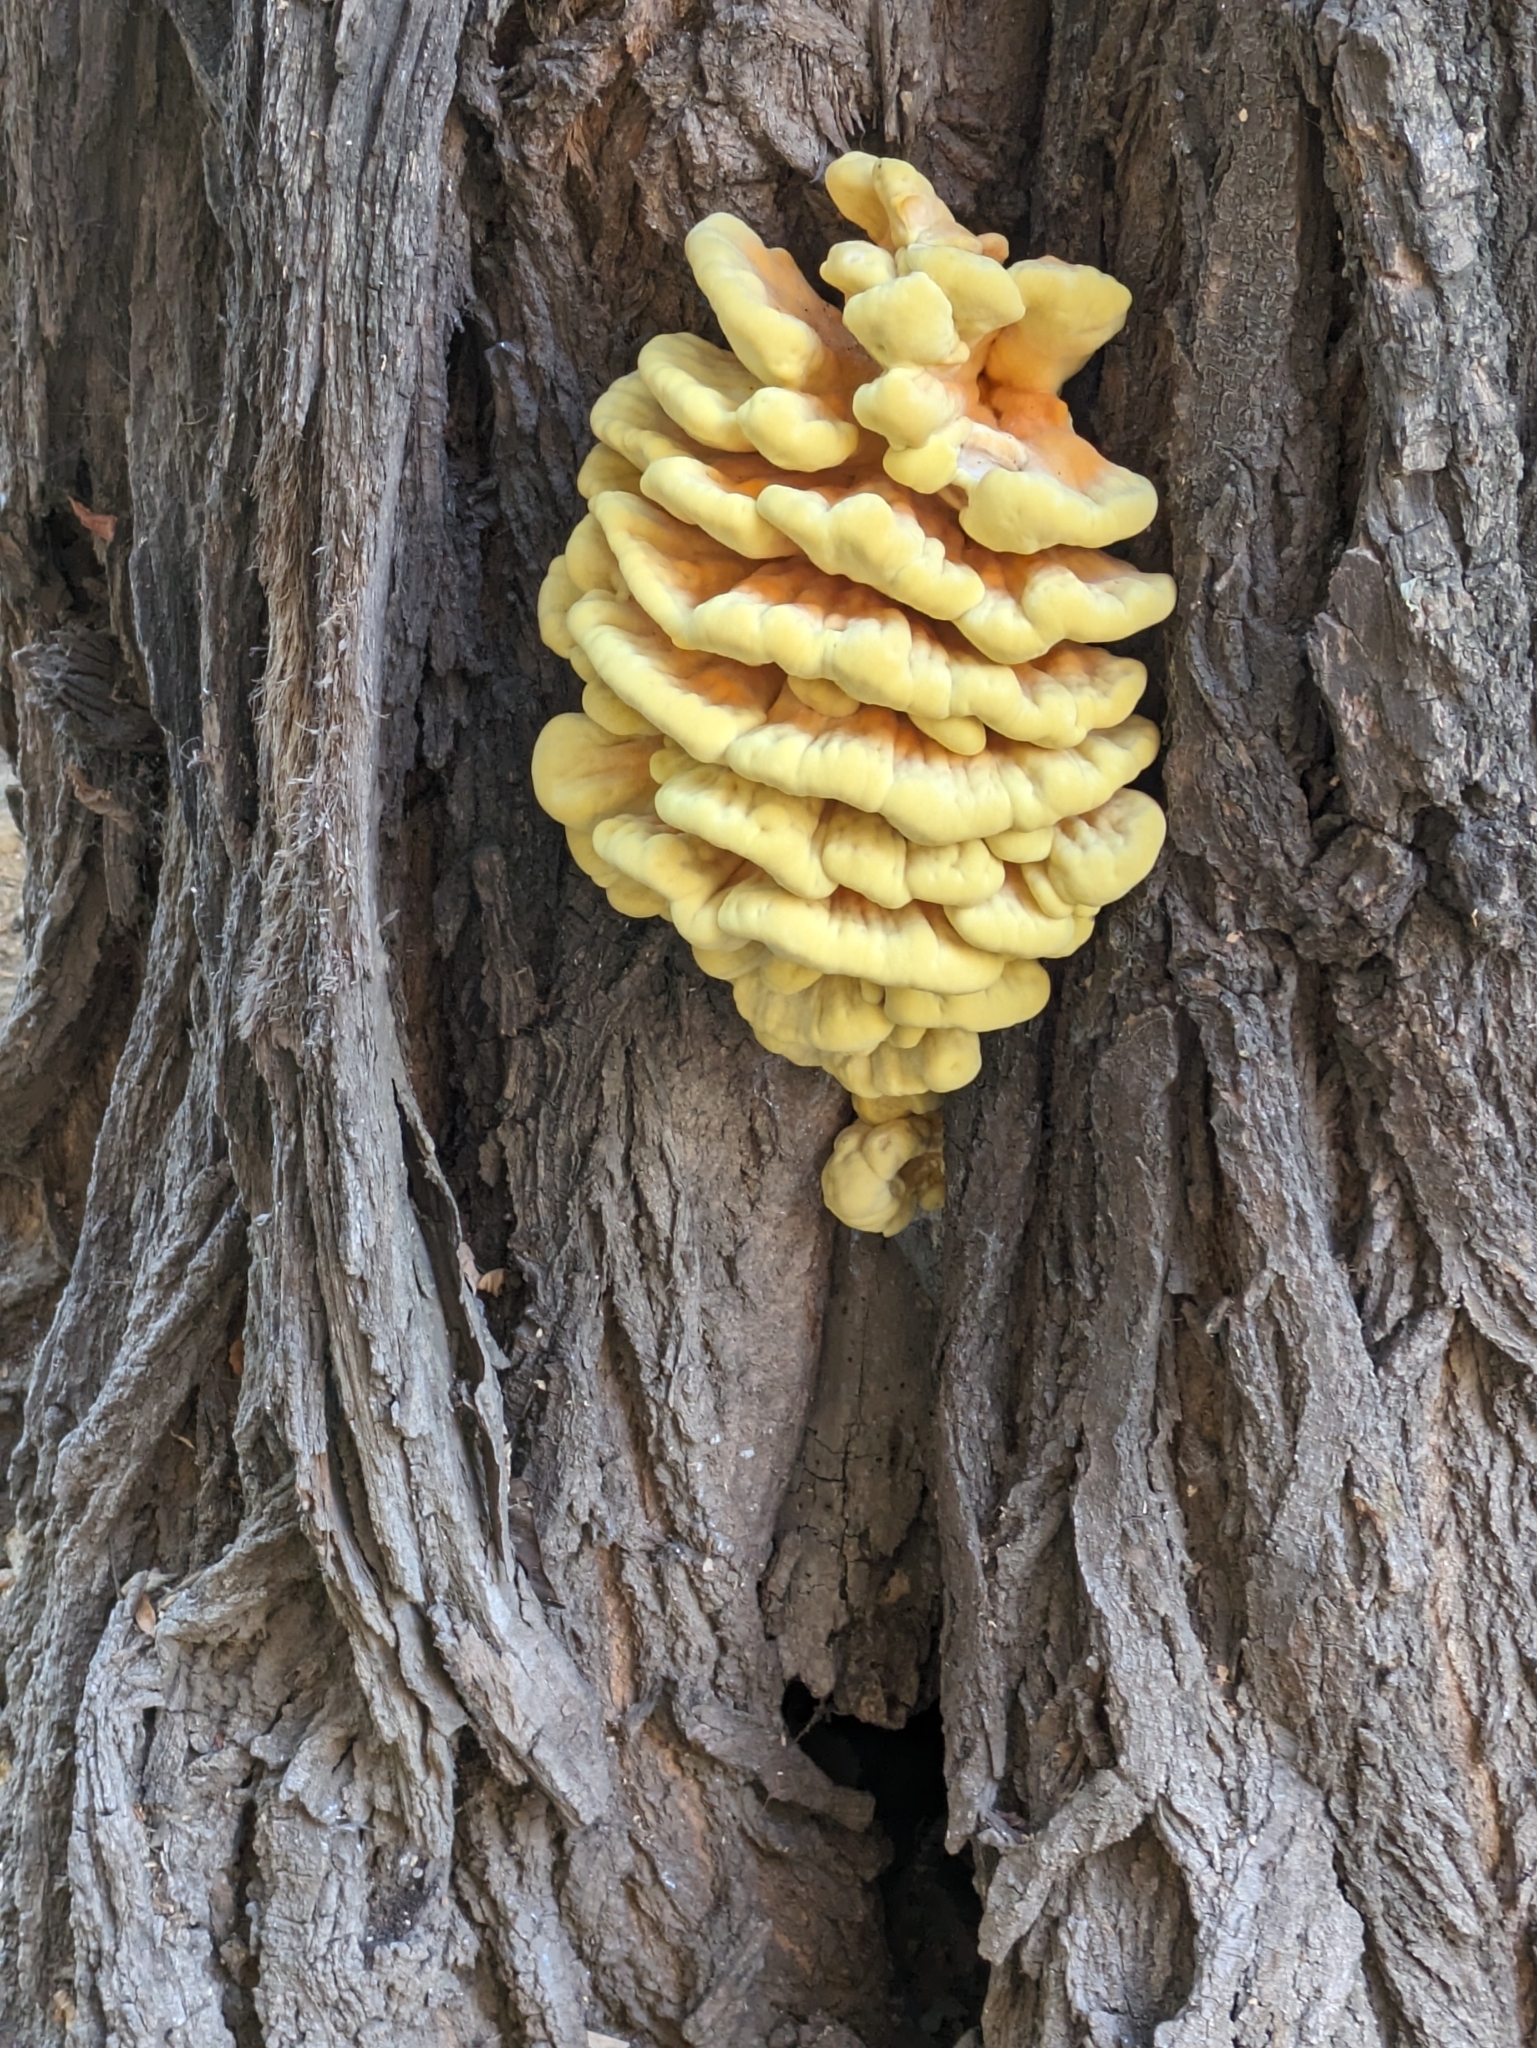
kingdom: Fungi
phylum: Basidiomycota
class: Agaricomycetes
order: Polyporales
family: Laetiporaceae
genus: Laetiporus
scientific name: Laetiporus sulphureus
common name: Chicken of the woods
